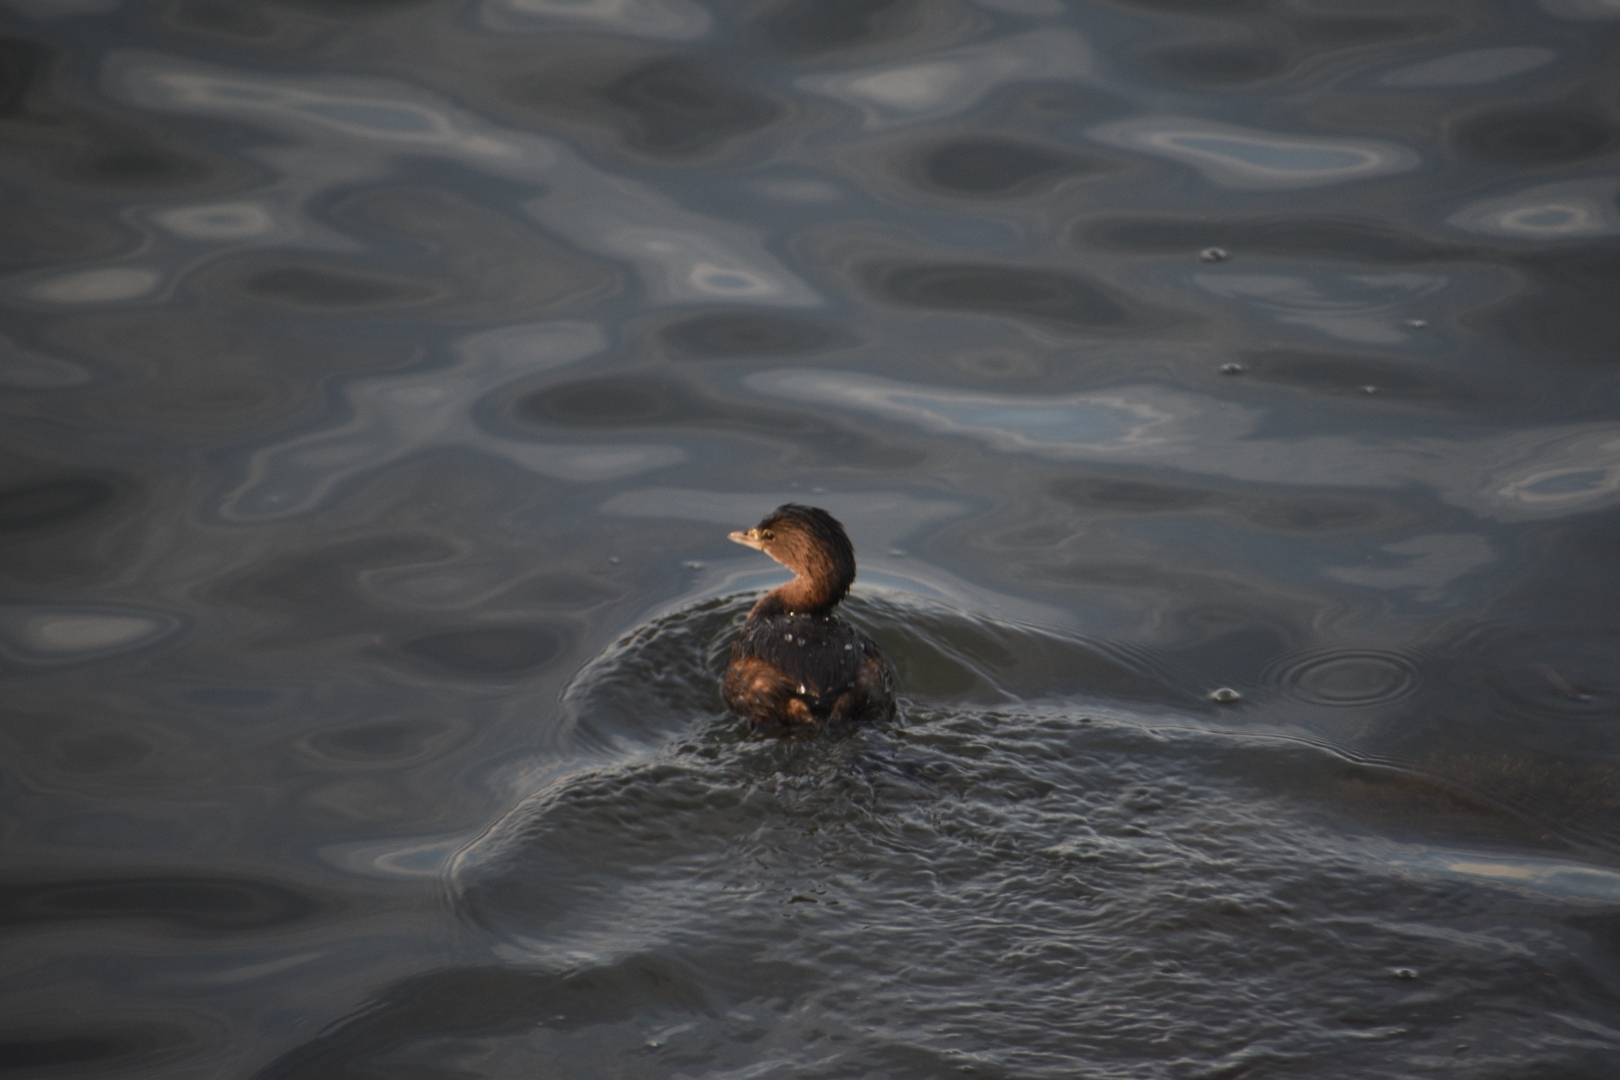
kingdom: Animalia
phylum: Chordata
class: Aves
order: Podicipediformes
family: Podicipedidae
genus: Podilymbus
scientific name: Podilymbus podiceps
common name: Pied-billed grebe
